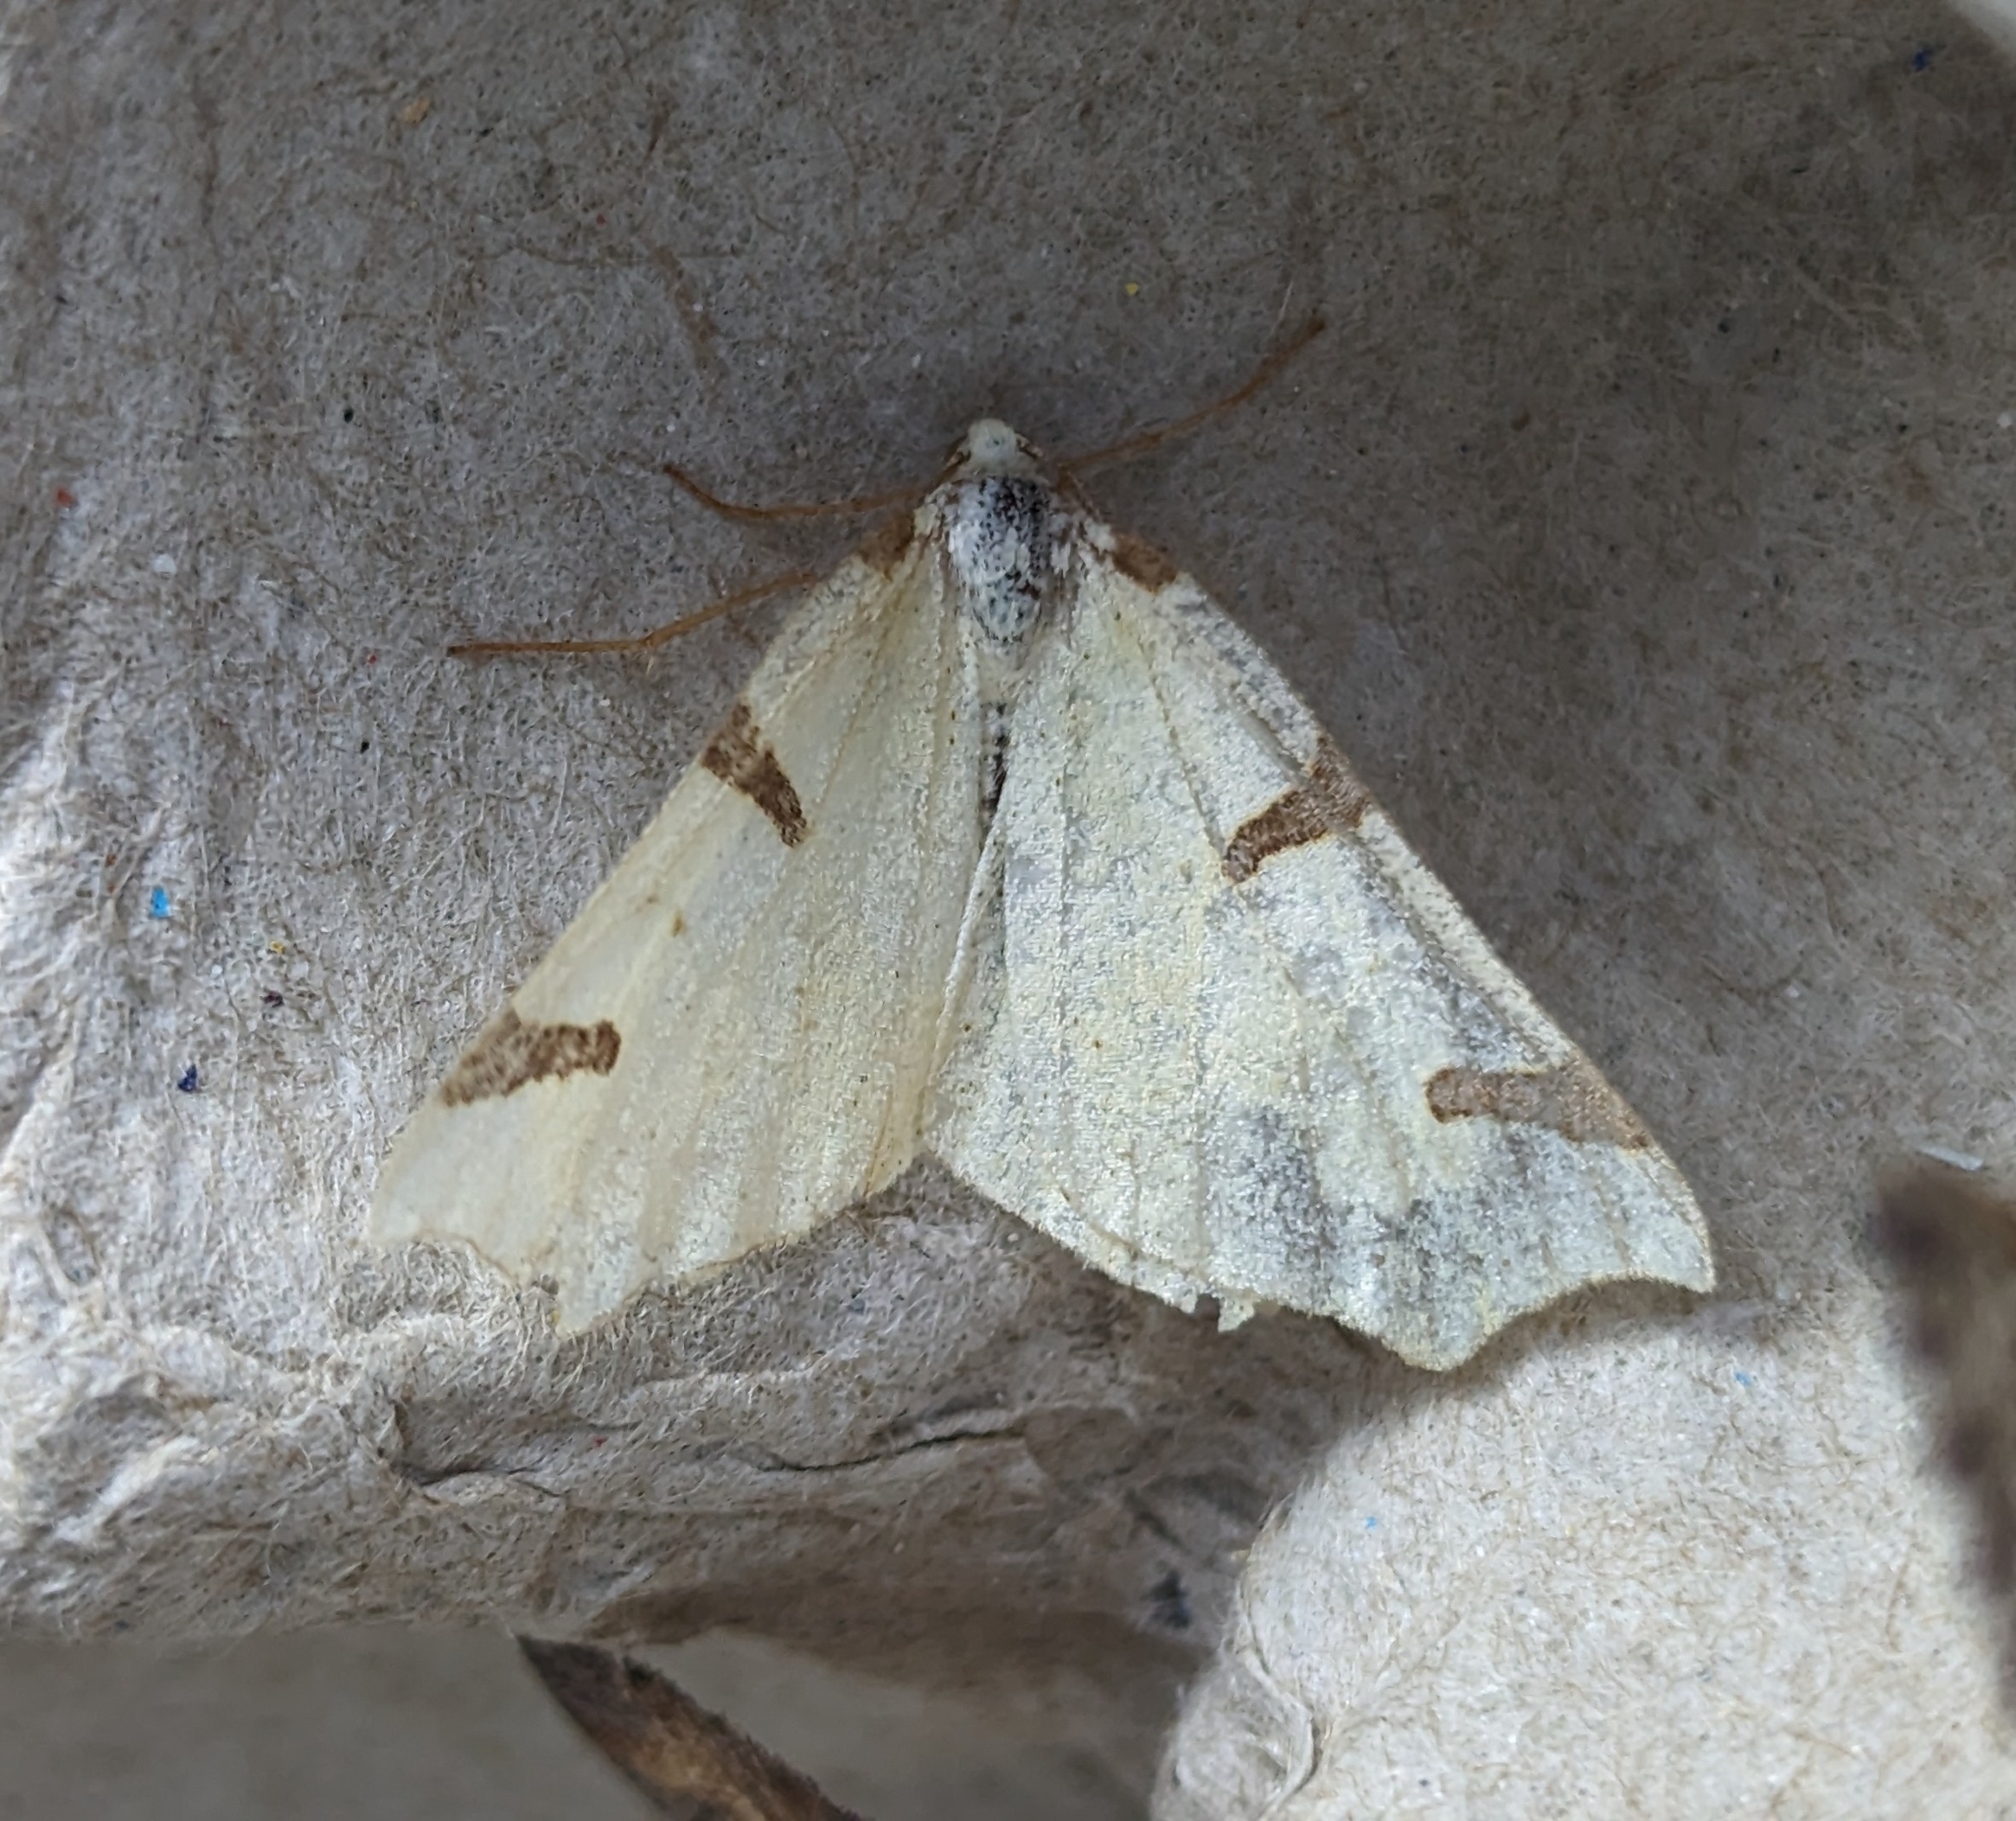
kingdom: Animalia
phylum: Arthropoda
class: Insecta
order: Lepidoptera
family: Geometridae
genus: Neoterpes
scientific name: Neoterpes trianguliferata
